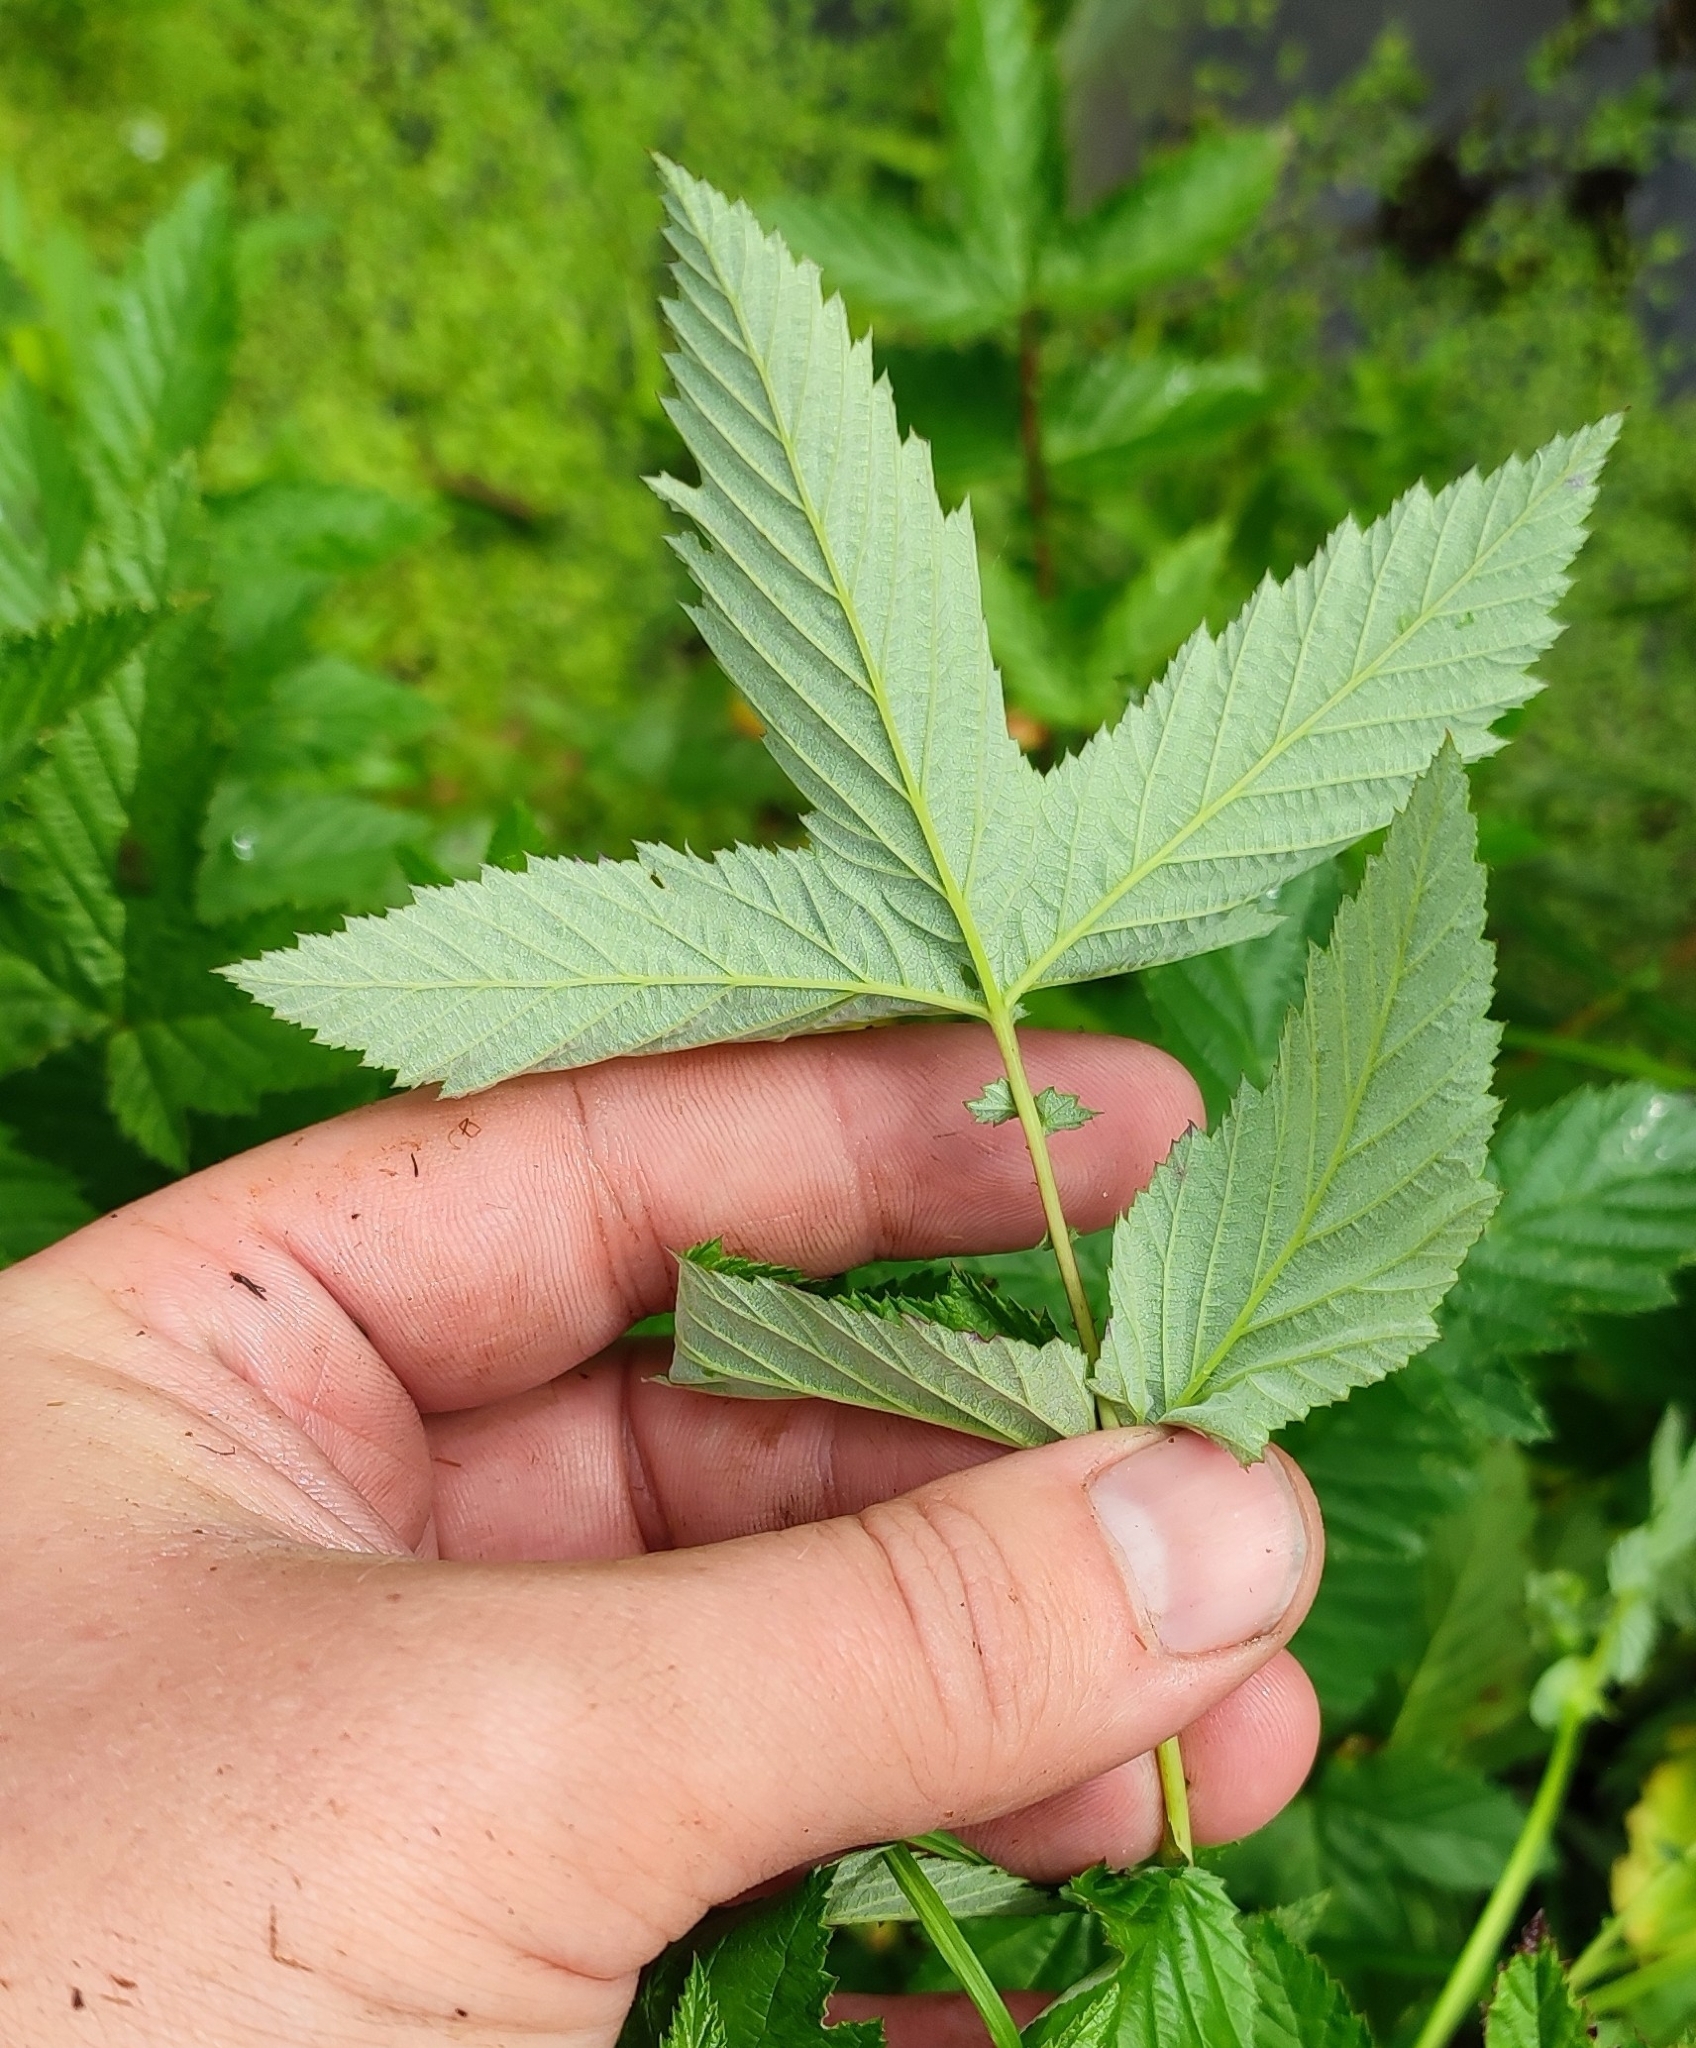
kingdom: Plantae
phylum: Tracheophyta
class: Magnoliopsida
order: Rosales
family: Rosaceae
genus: Filipendula
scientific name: Filipendula ulmaria
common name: Meadowsweet
